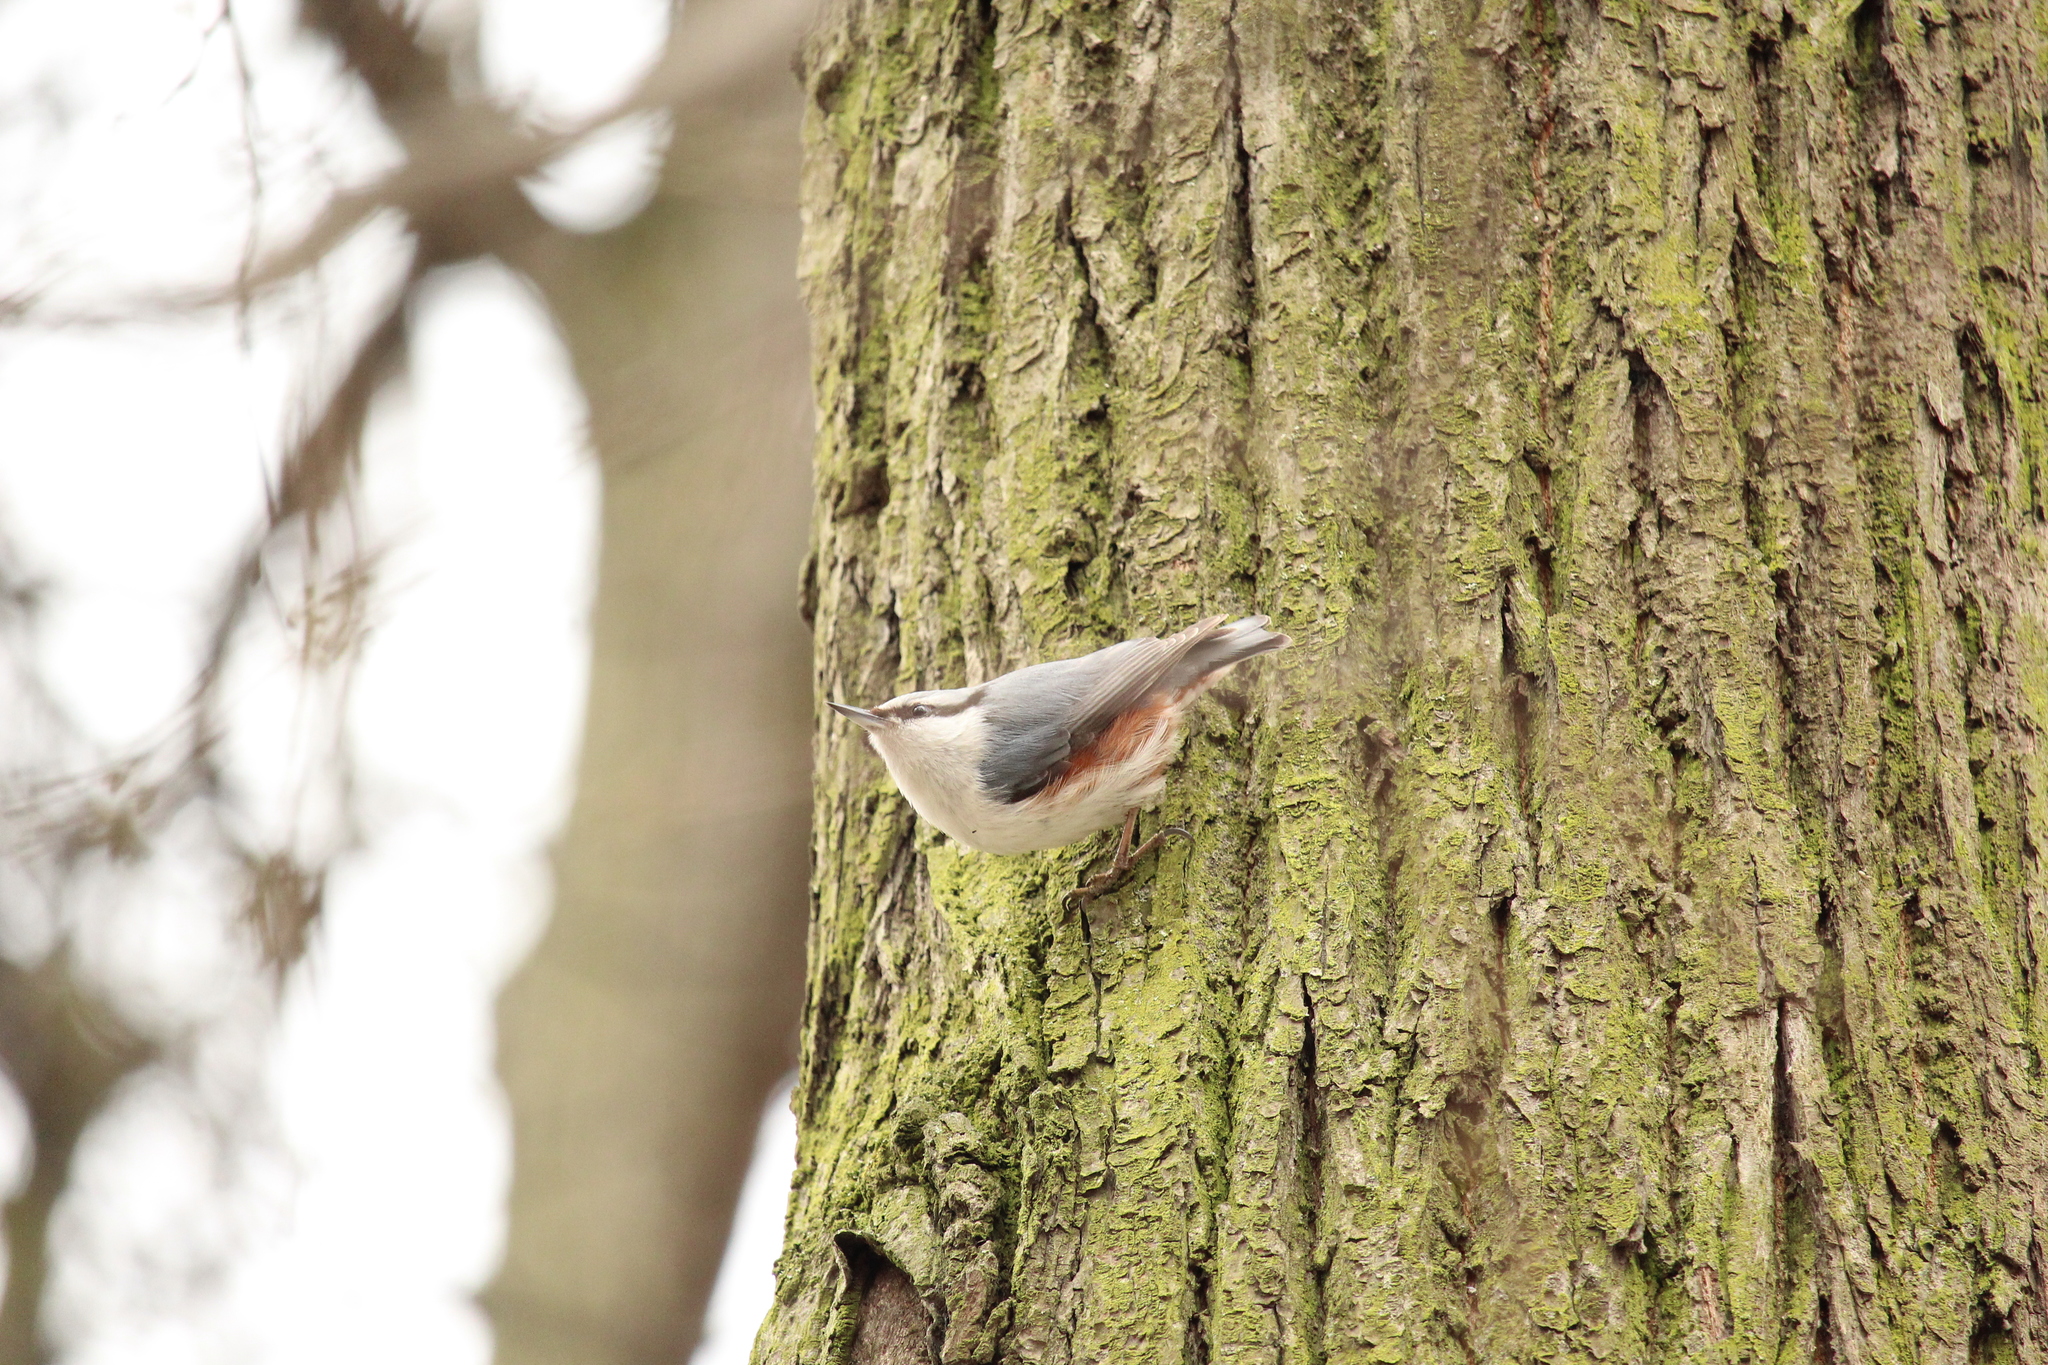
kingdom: Animalia
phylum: Chordata
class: Aves
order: Passeriformes
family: Sittidae
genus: Sitta
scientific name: Sitta europaea
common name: Eurasian nuthatch
